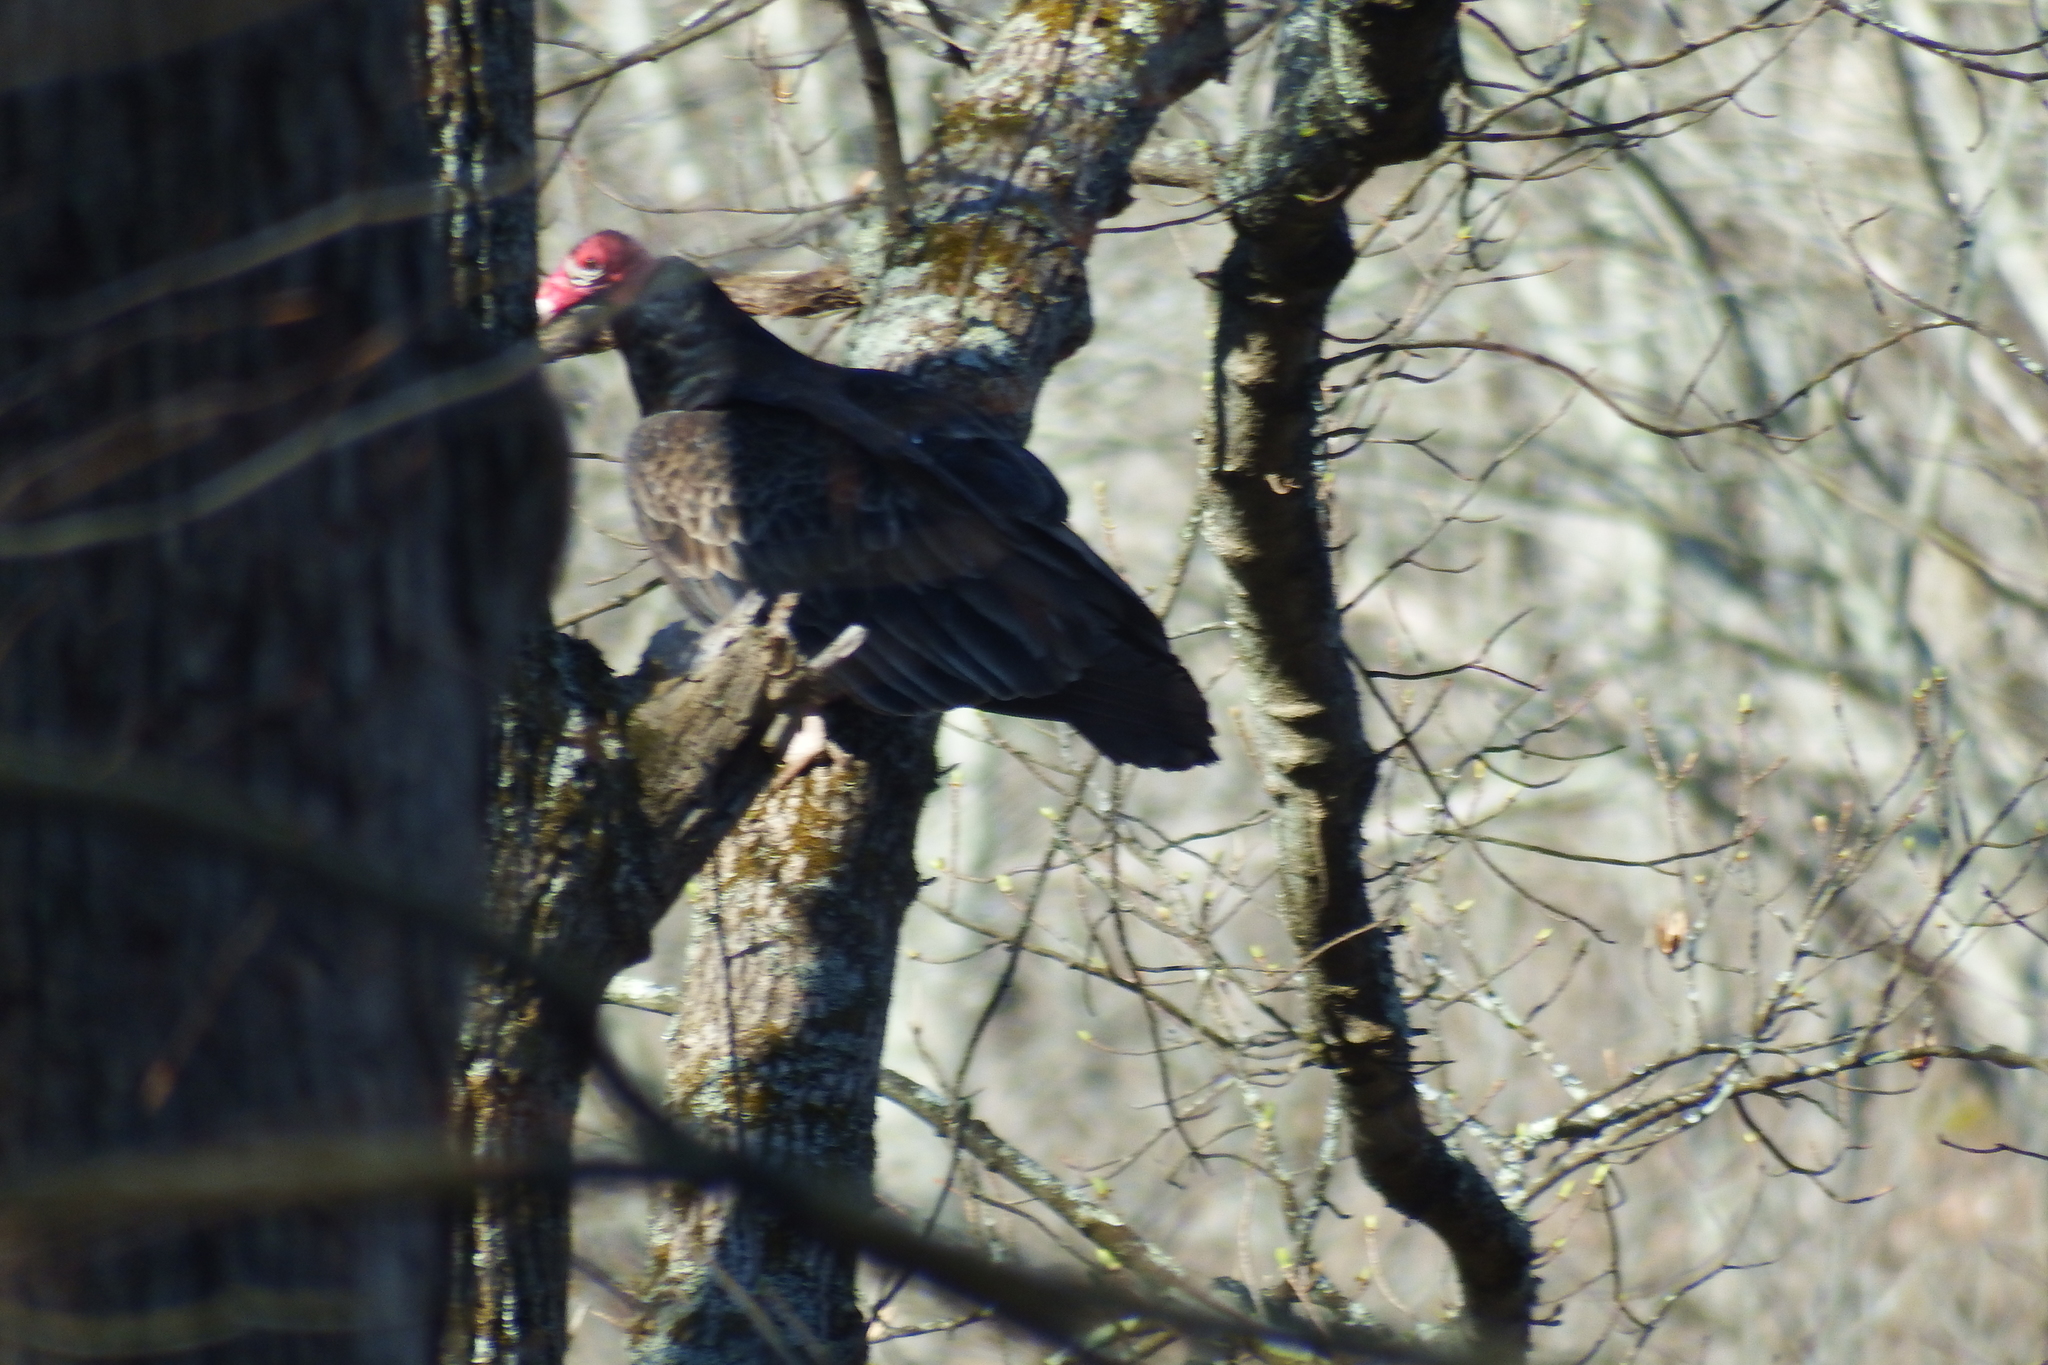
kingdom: Animalia
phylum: Chordata
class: Aves
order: Accipitriformes
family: Cathartidae
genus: Cathartes
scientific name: Cathartes aura
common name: Turkey vulture
